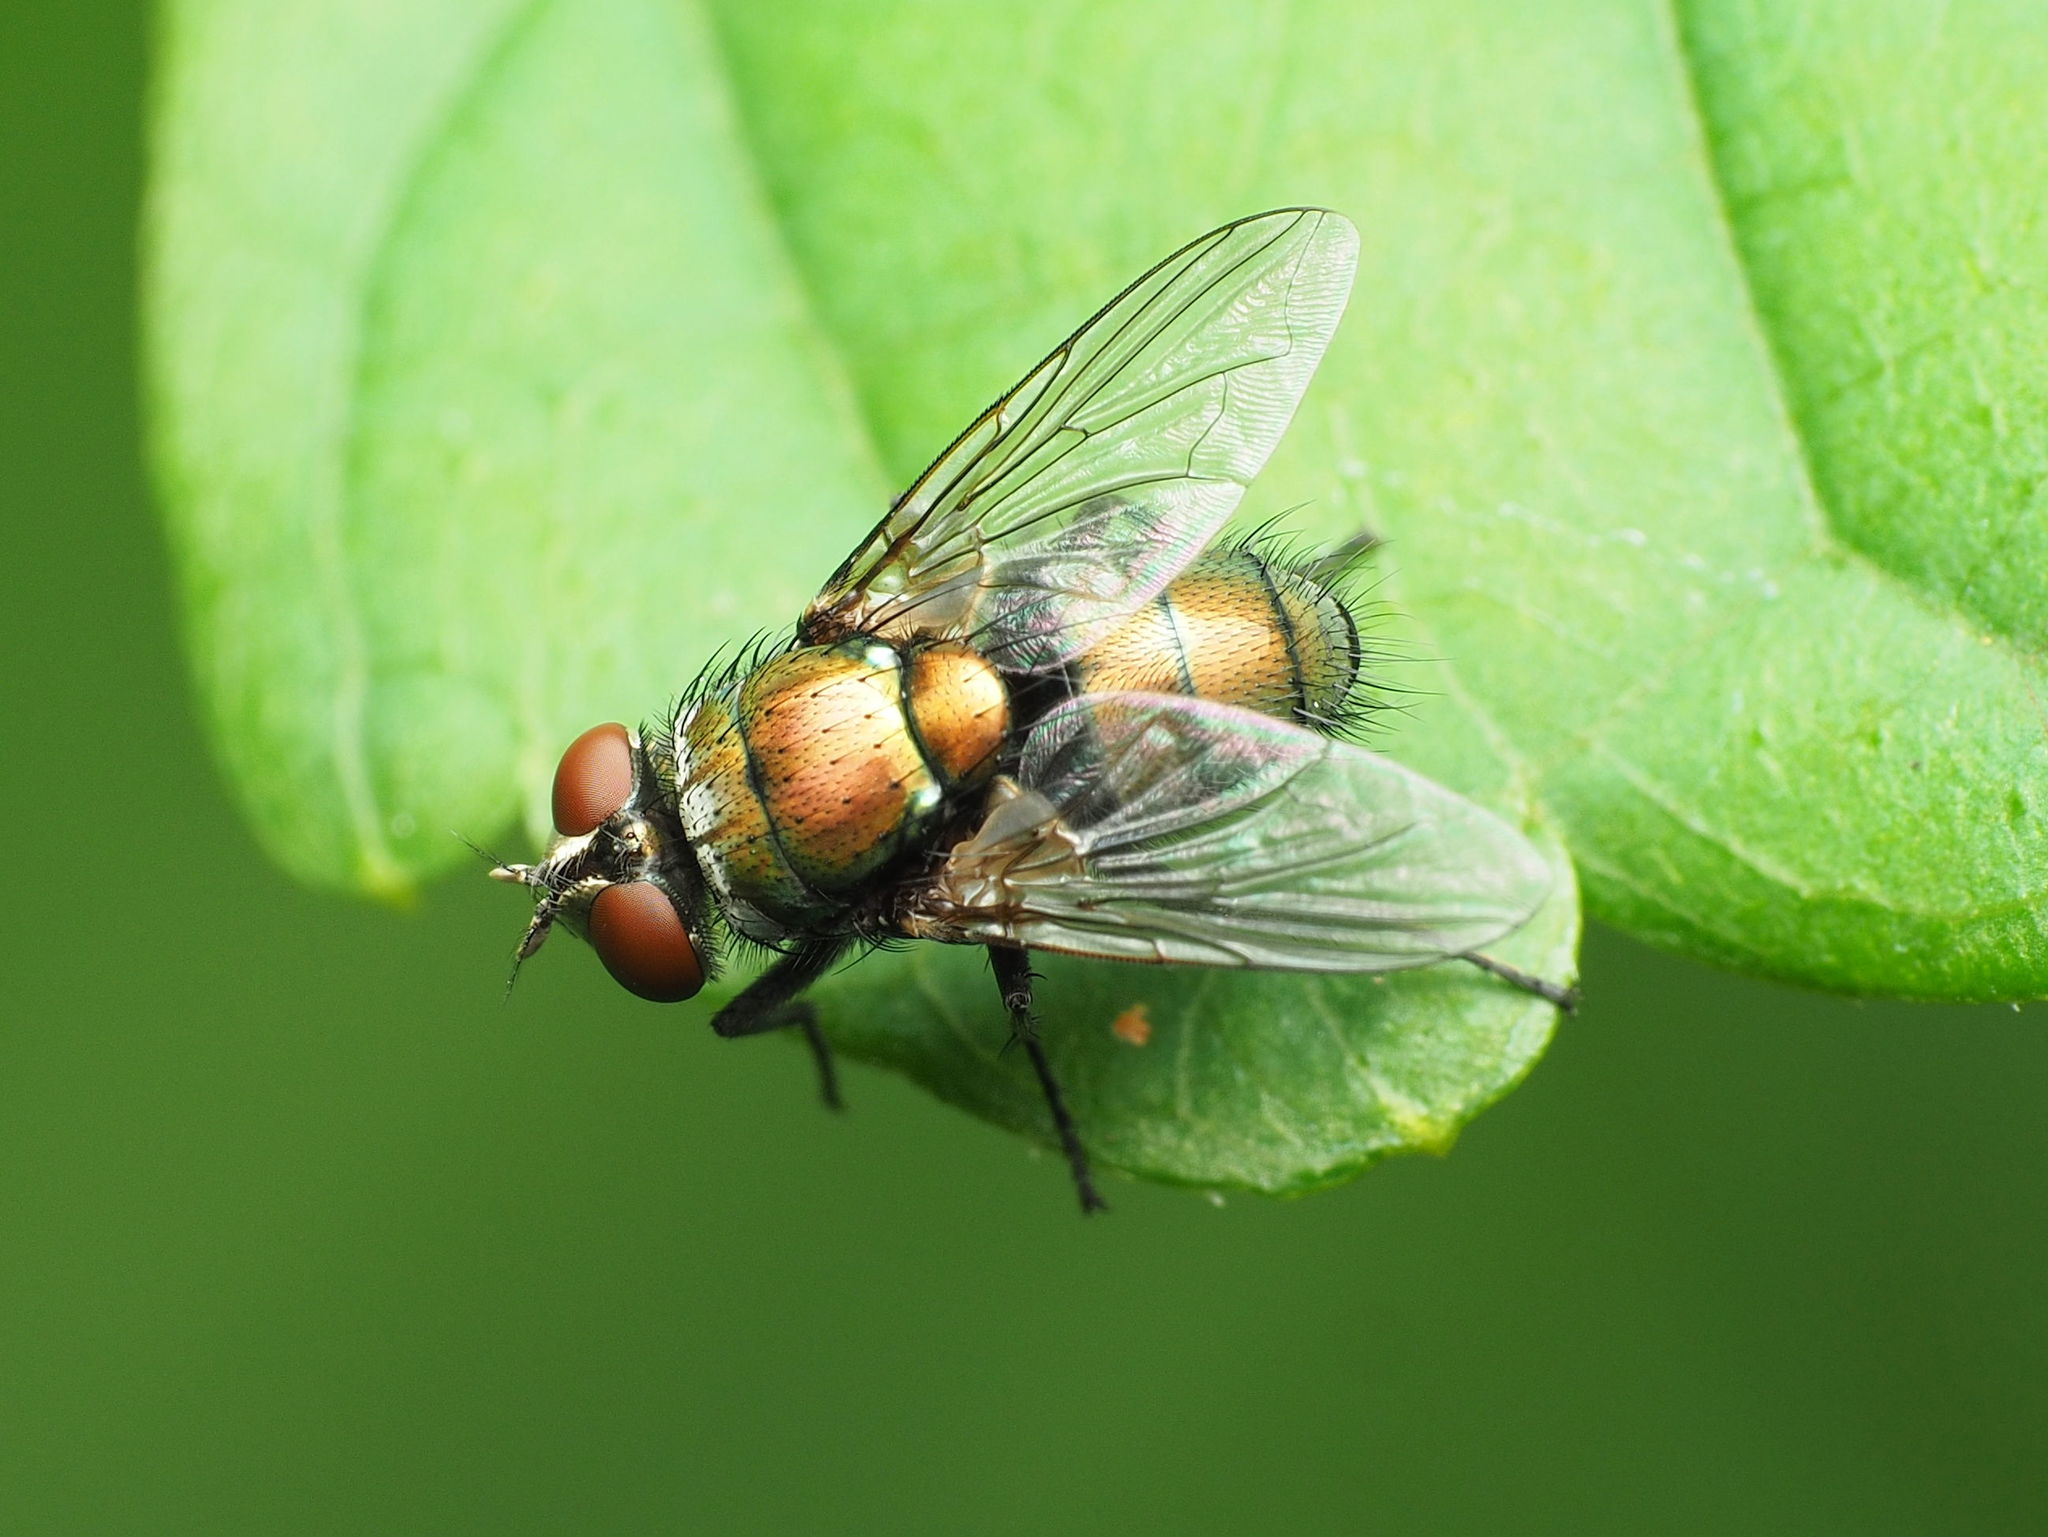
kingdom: Animalia
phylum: Arthropoda
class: Insecta
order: Diptera
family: Calliphoridae
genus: Lucilia
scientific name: Lucilia cuprina
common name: Sheep blow fly
